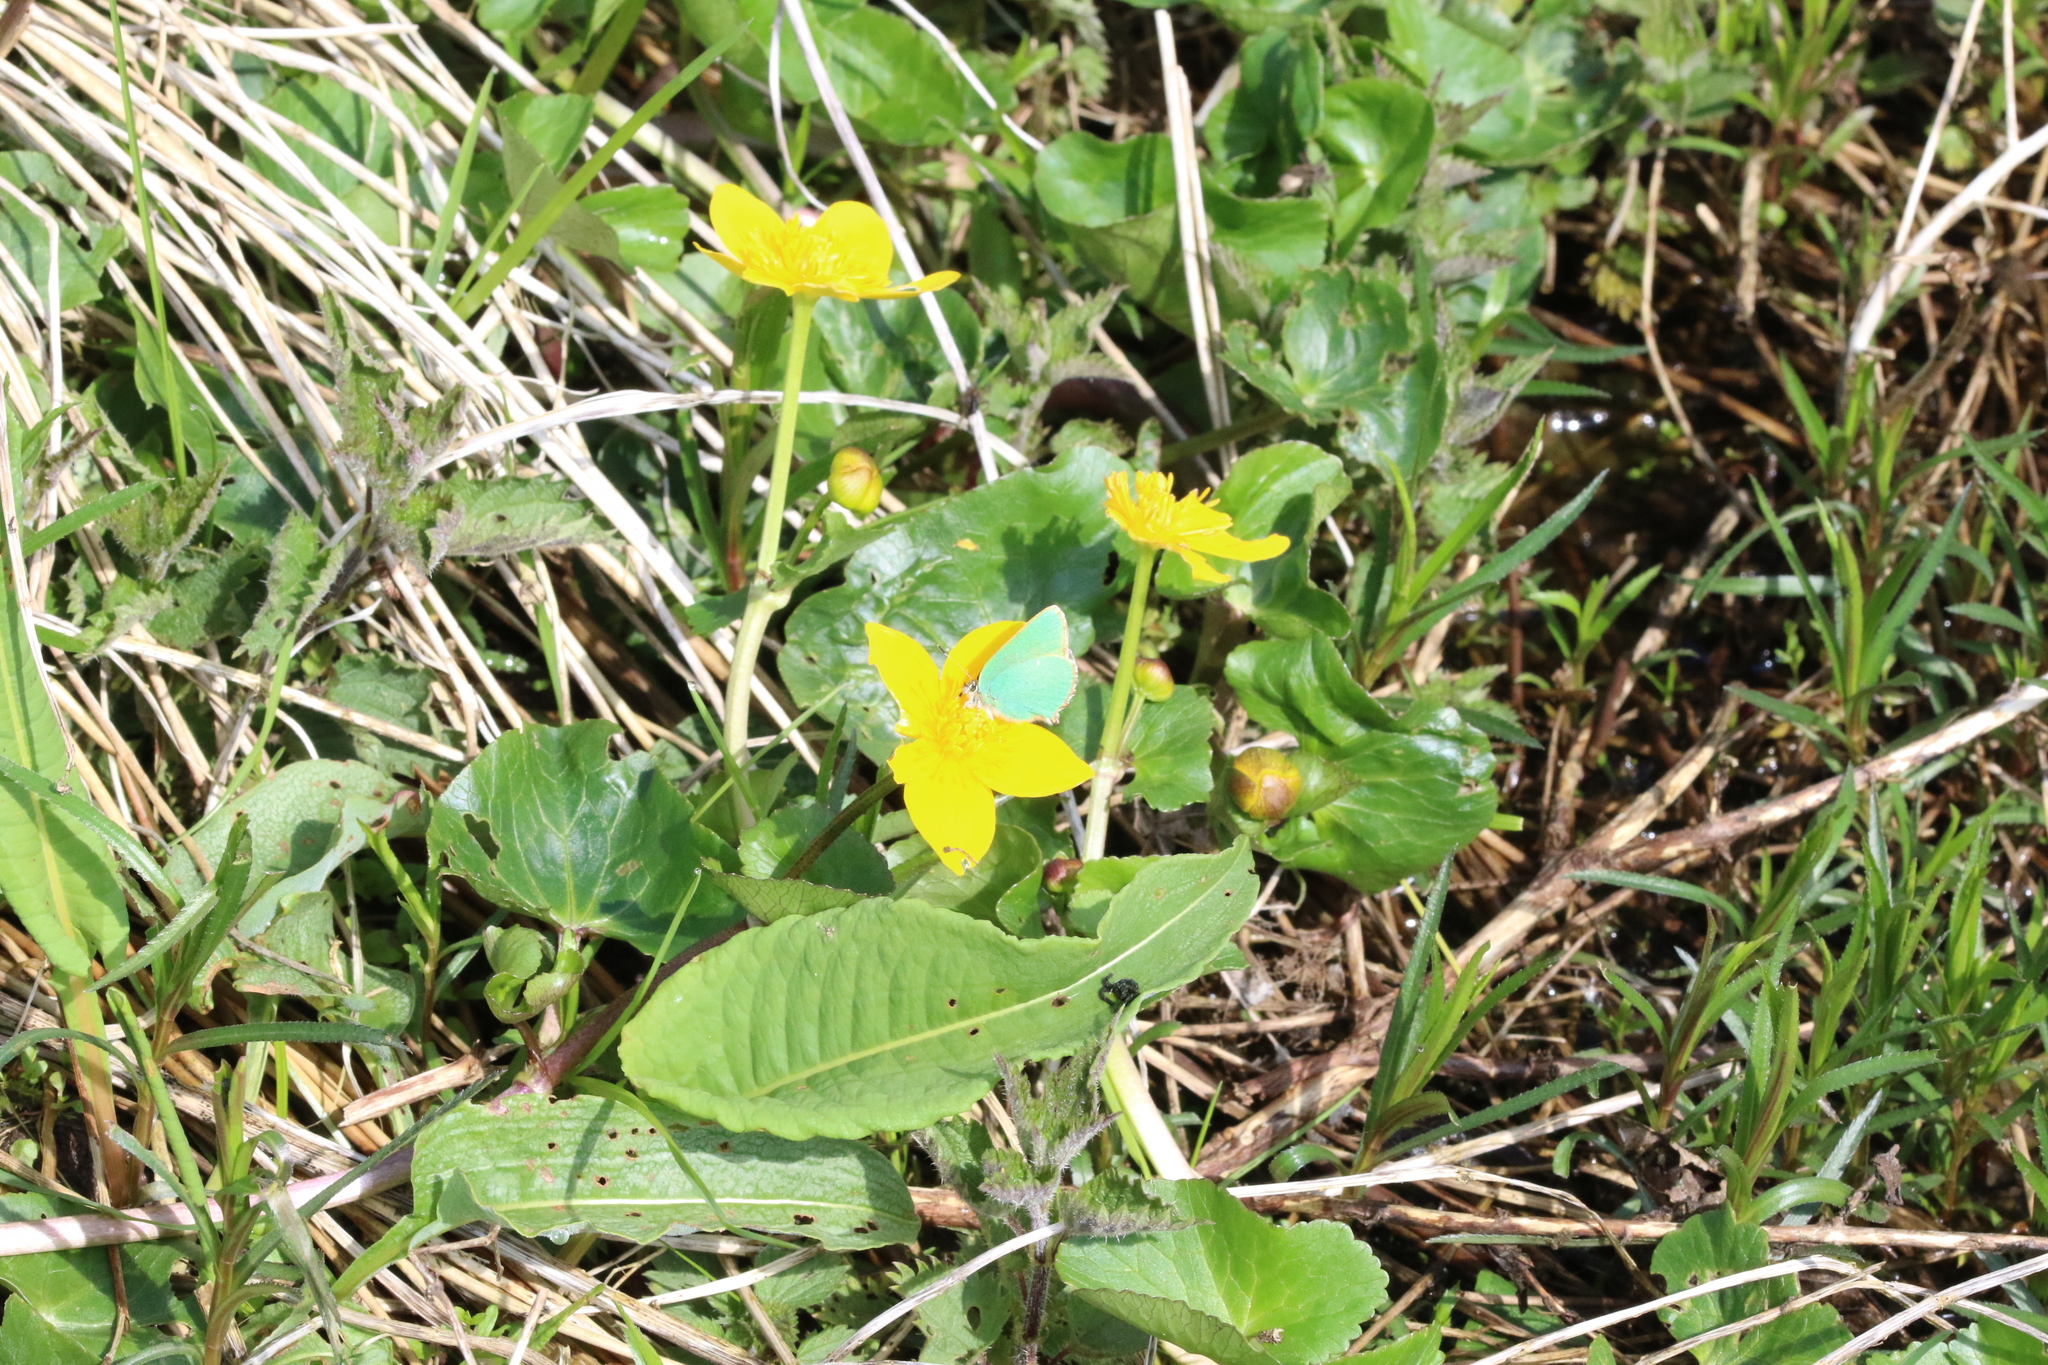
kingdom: Animalia
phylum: Arthropoda
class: Insecta
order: Lepidoptera
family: Lycaenidae
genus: Callophrys
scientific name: Callophrys rubi
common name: Green hairstreak
